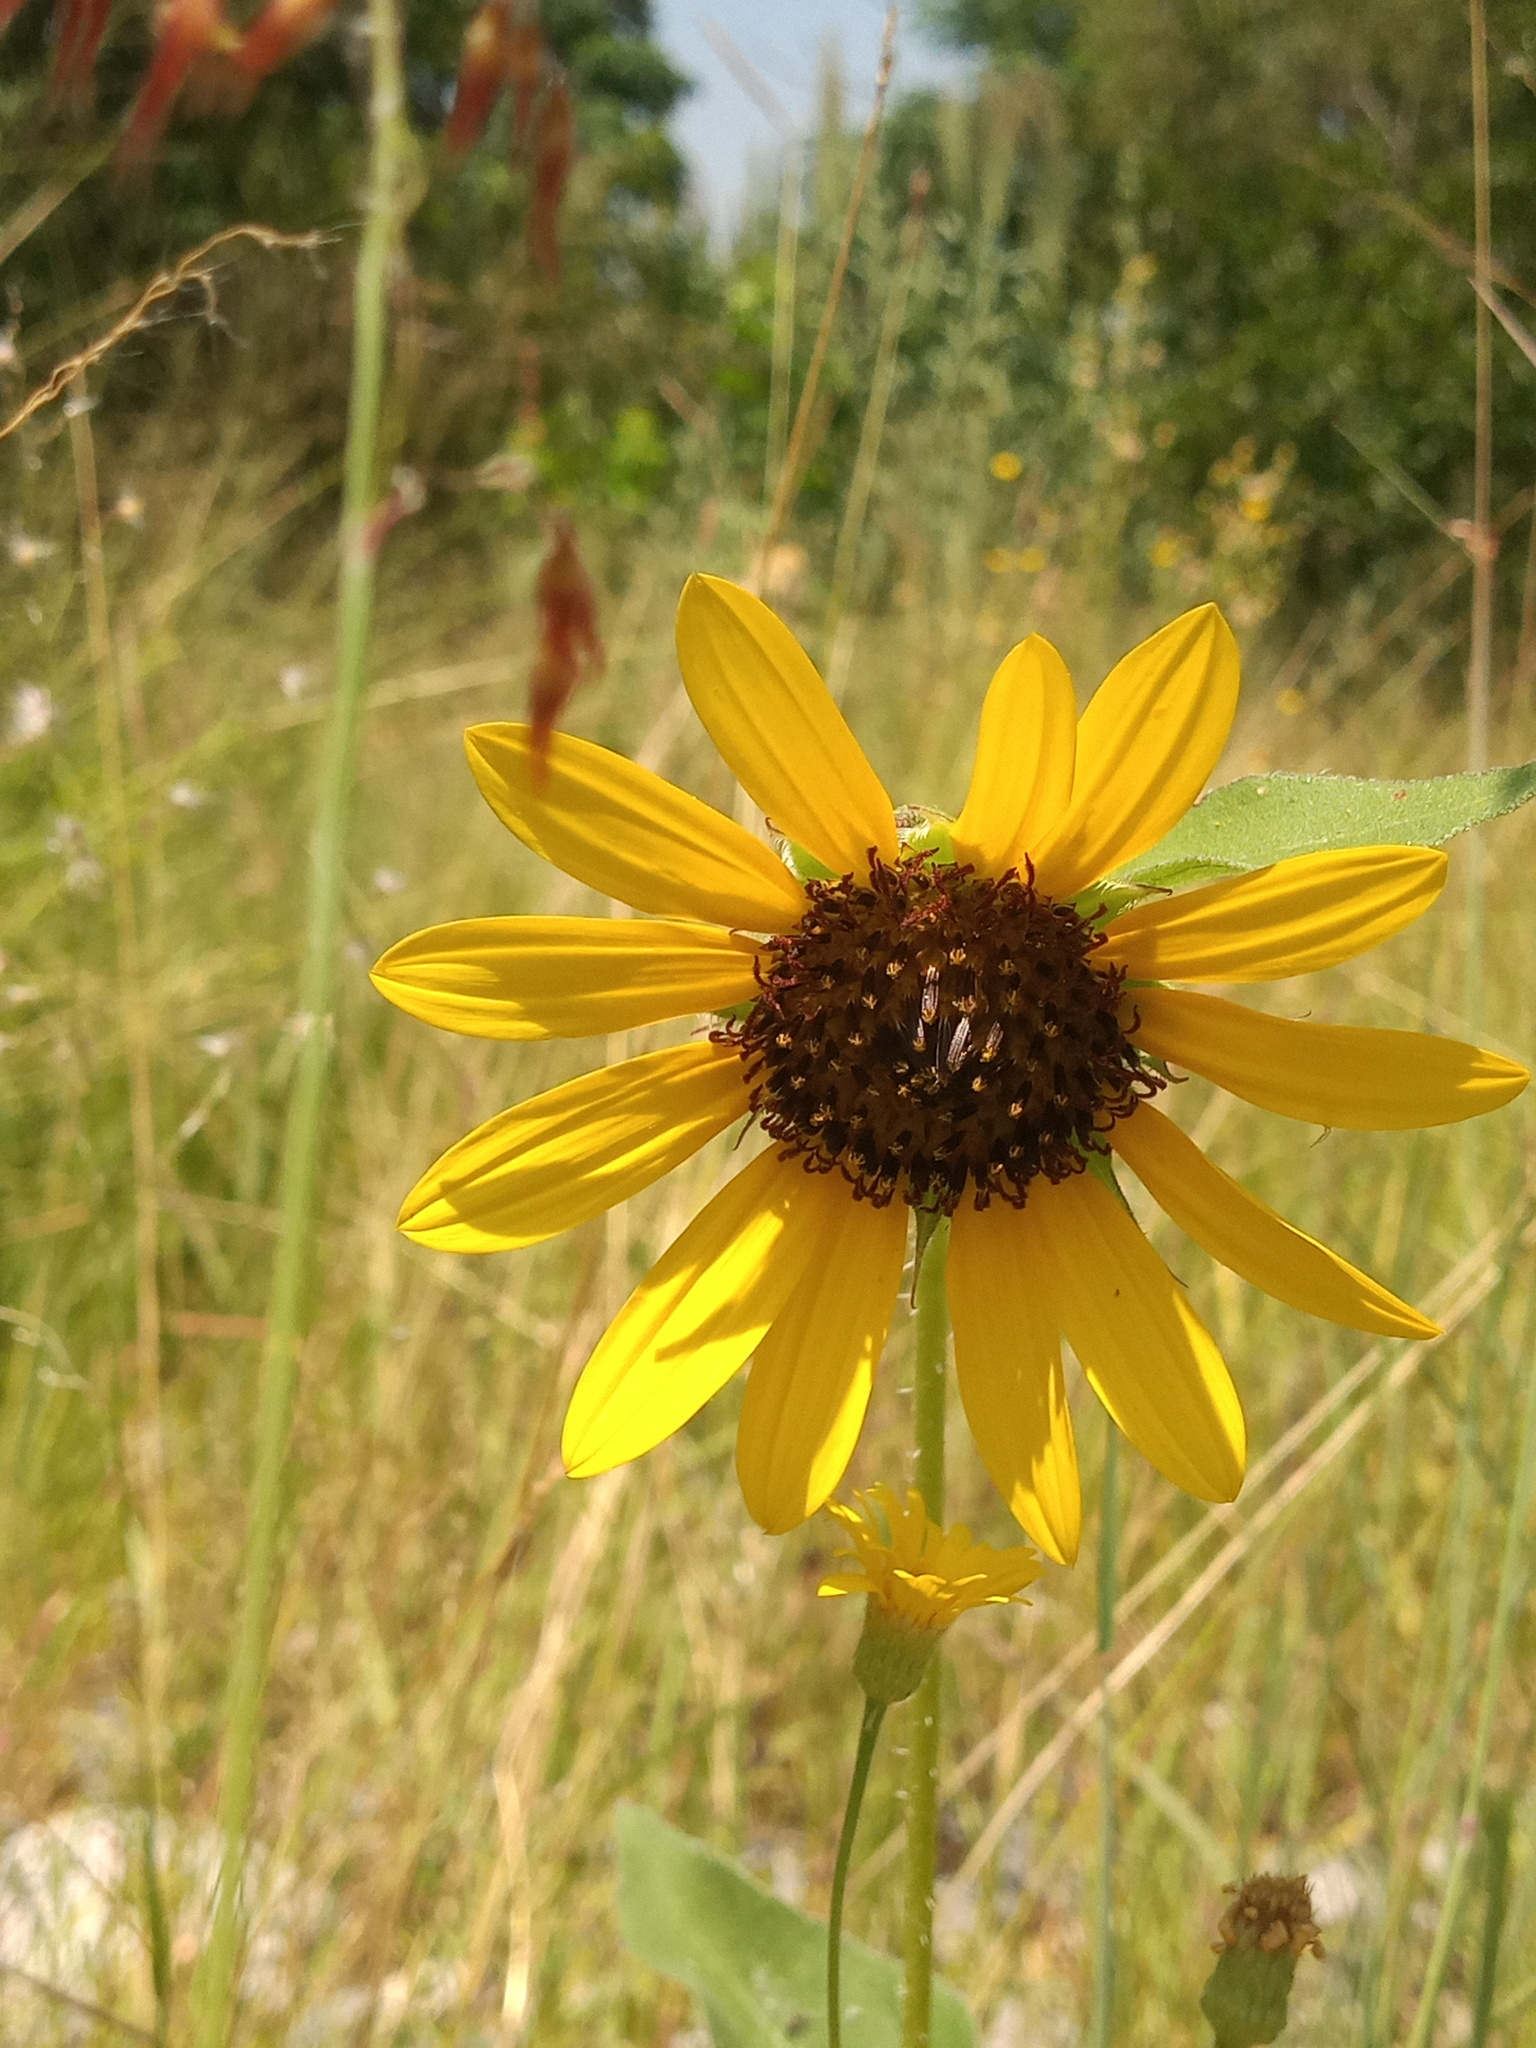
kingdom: Plantae
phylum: Tracheophyta
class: Magnoliopsida
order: Asterales
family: Asteraceae
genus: Helianthus
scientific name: Helianthus annuus
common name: Sunflower
